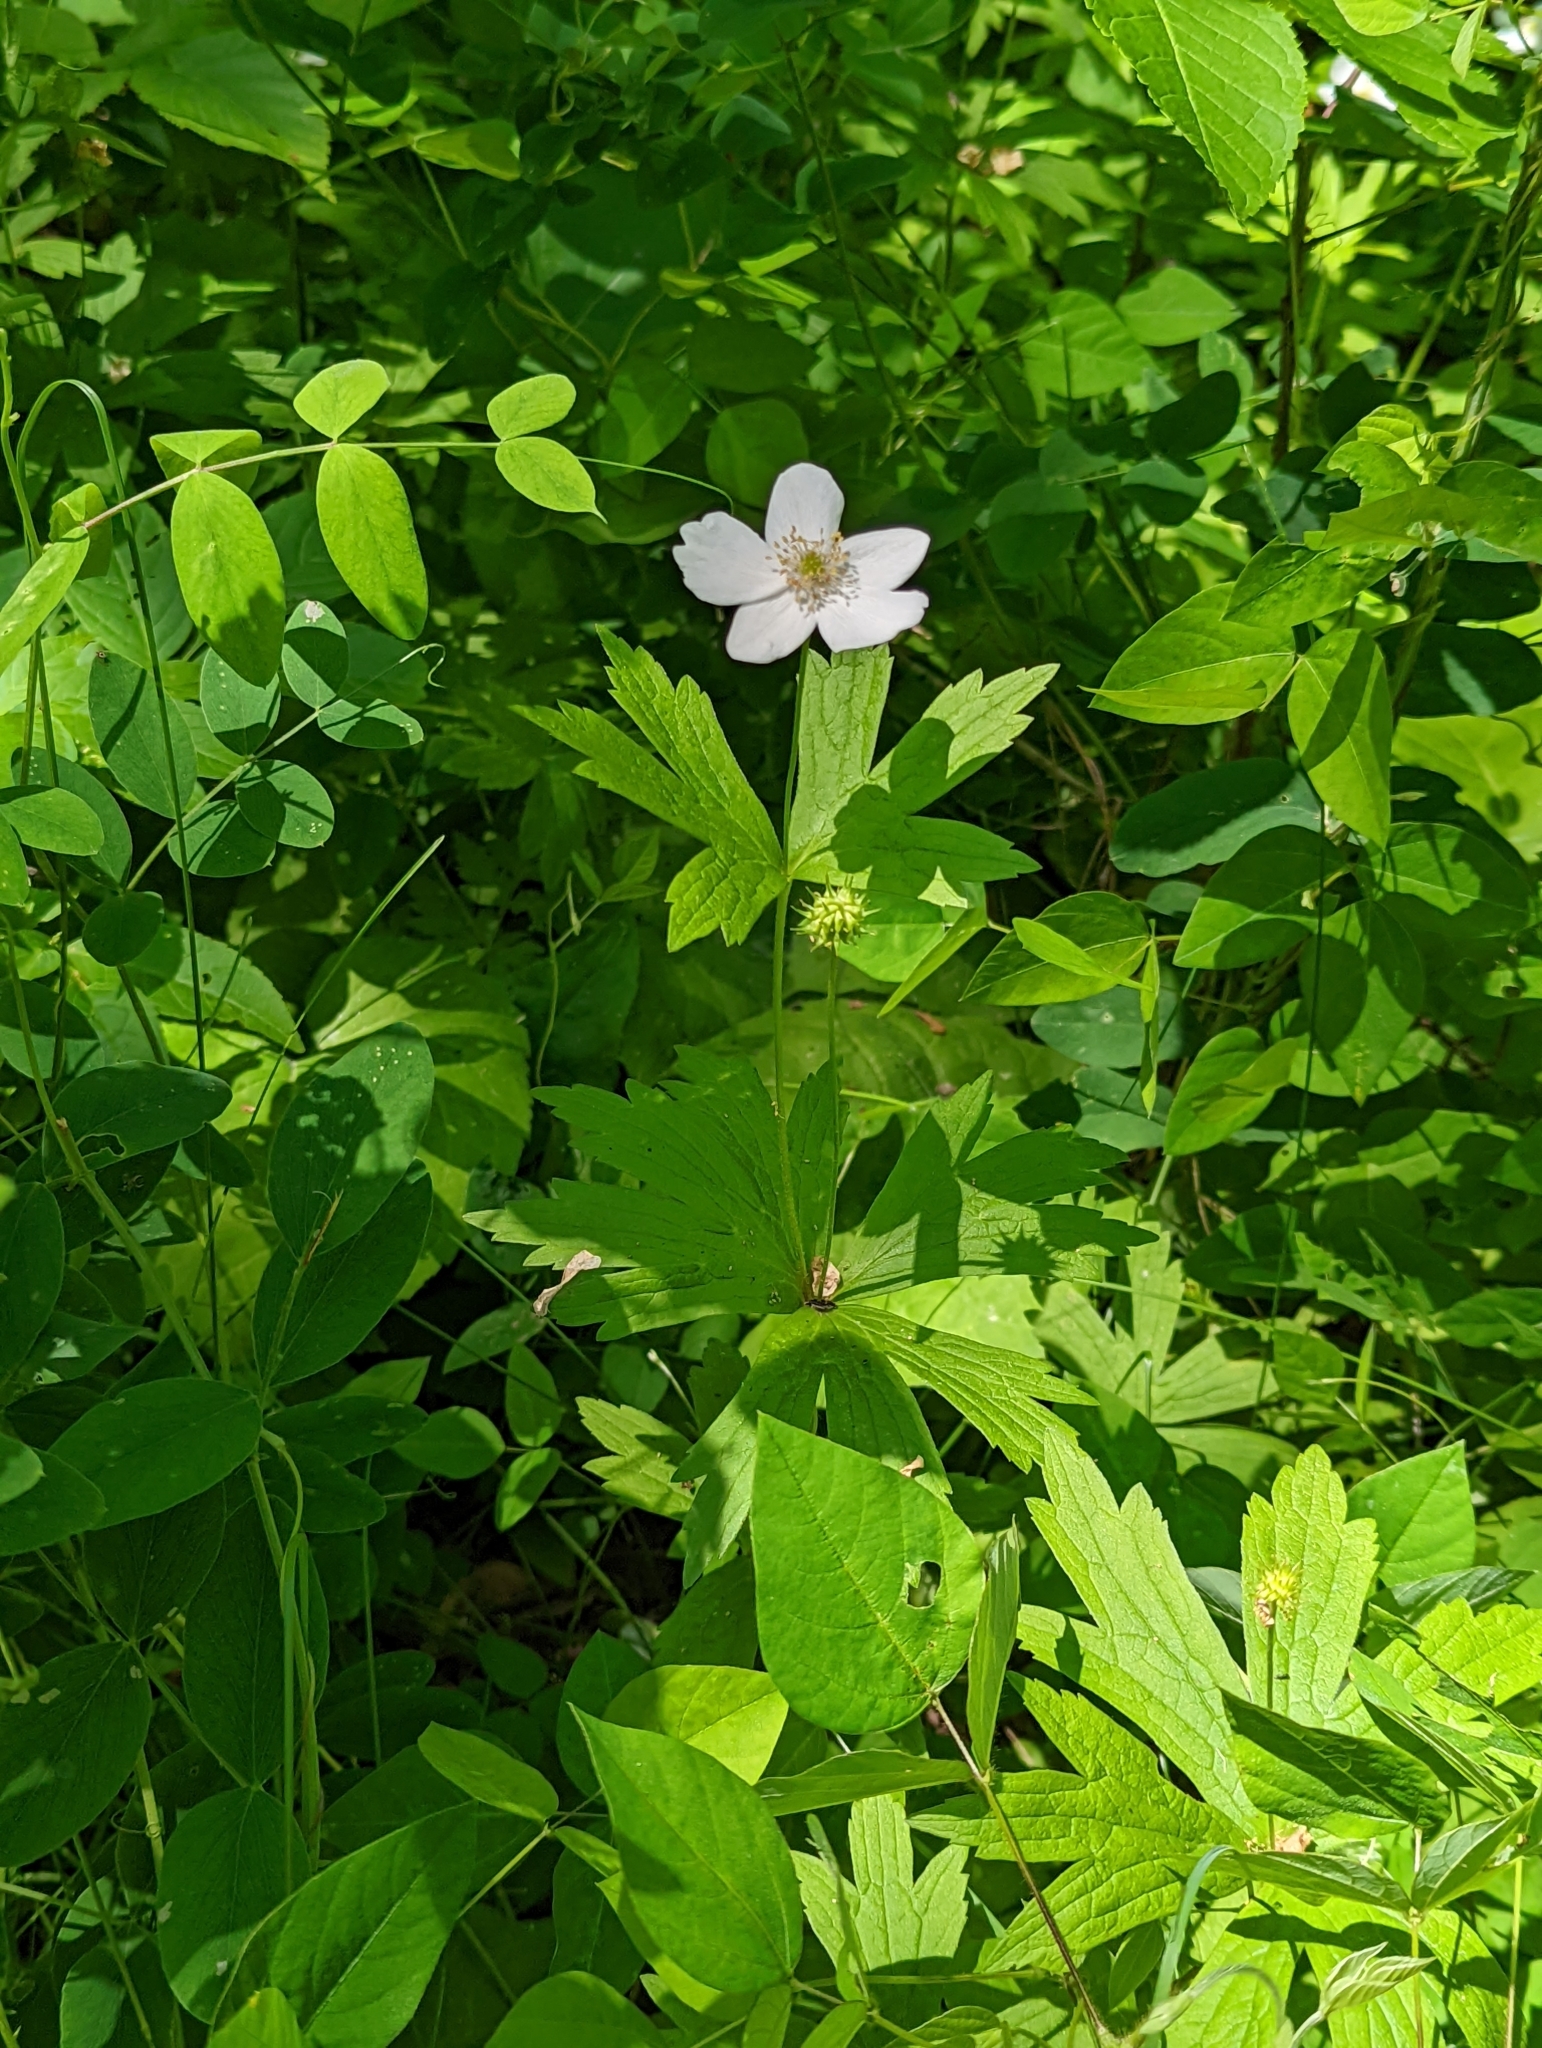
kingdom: Plantae
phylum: Tracheophyta
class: Magnoliopsida
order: Ranunculales
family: Ranunculaceae
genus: Anemonastrum
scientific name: Anemonastrum canadense
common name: Canada anemone
